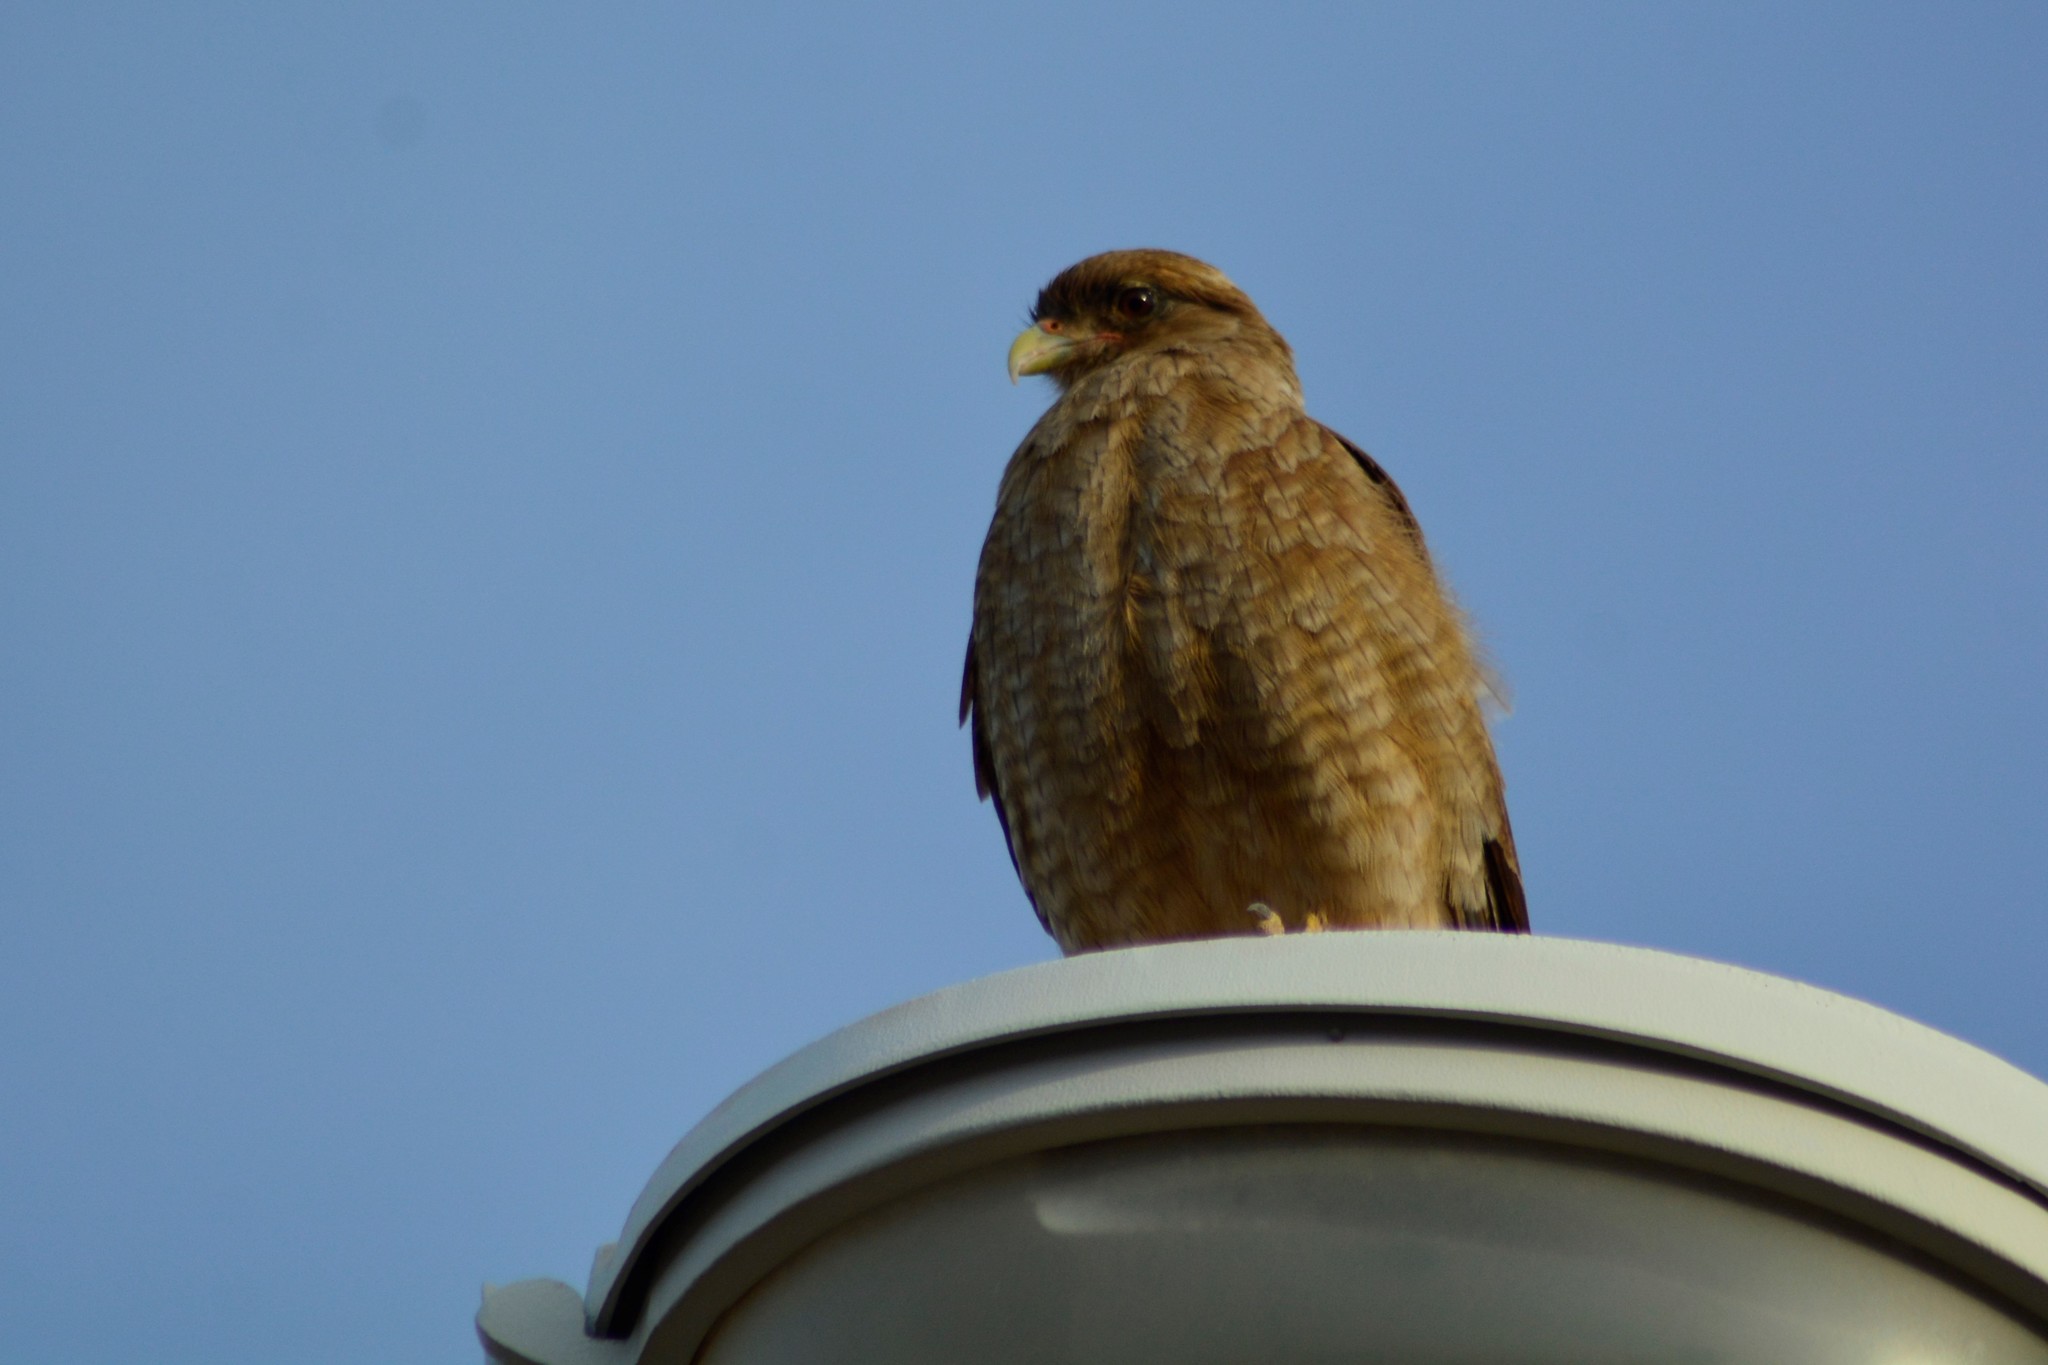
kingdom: Animalia
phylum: Chordata
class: Aves
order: Falconiformes
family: Falconidae
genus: Daptrius
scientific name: Daptrius
